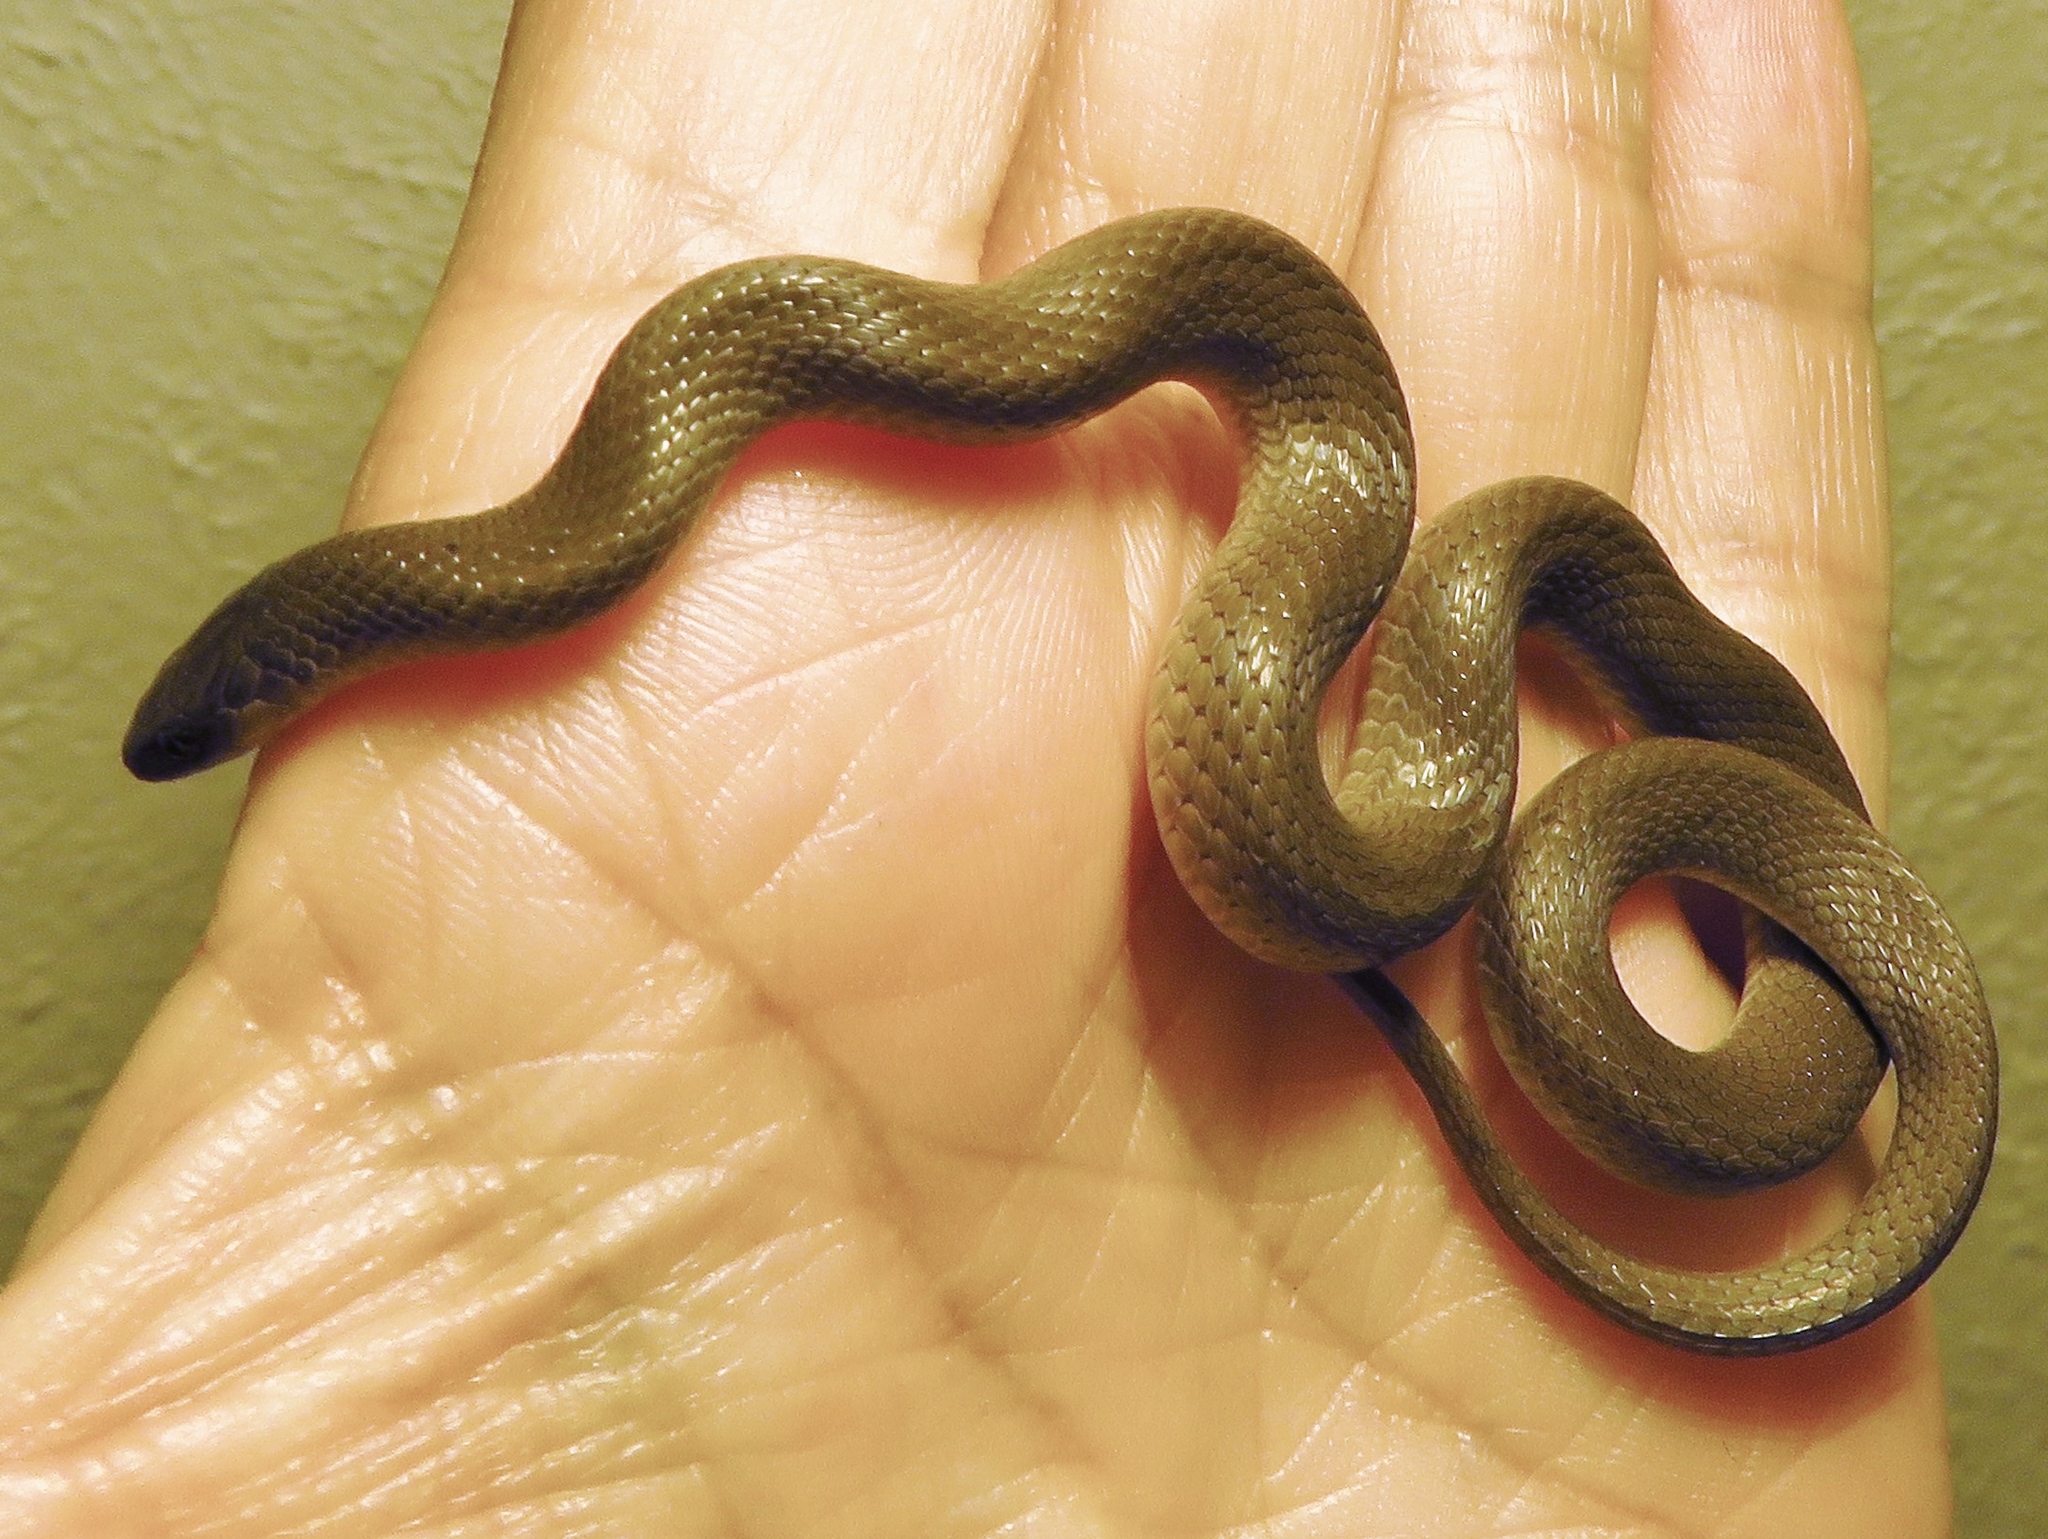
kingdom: Animalia
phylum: Chordata
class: Squamata
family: Colubridae
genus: Haldea
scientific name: Haldea striatula
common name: Rough earth snake
